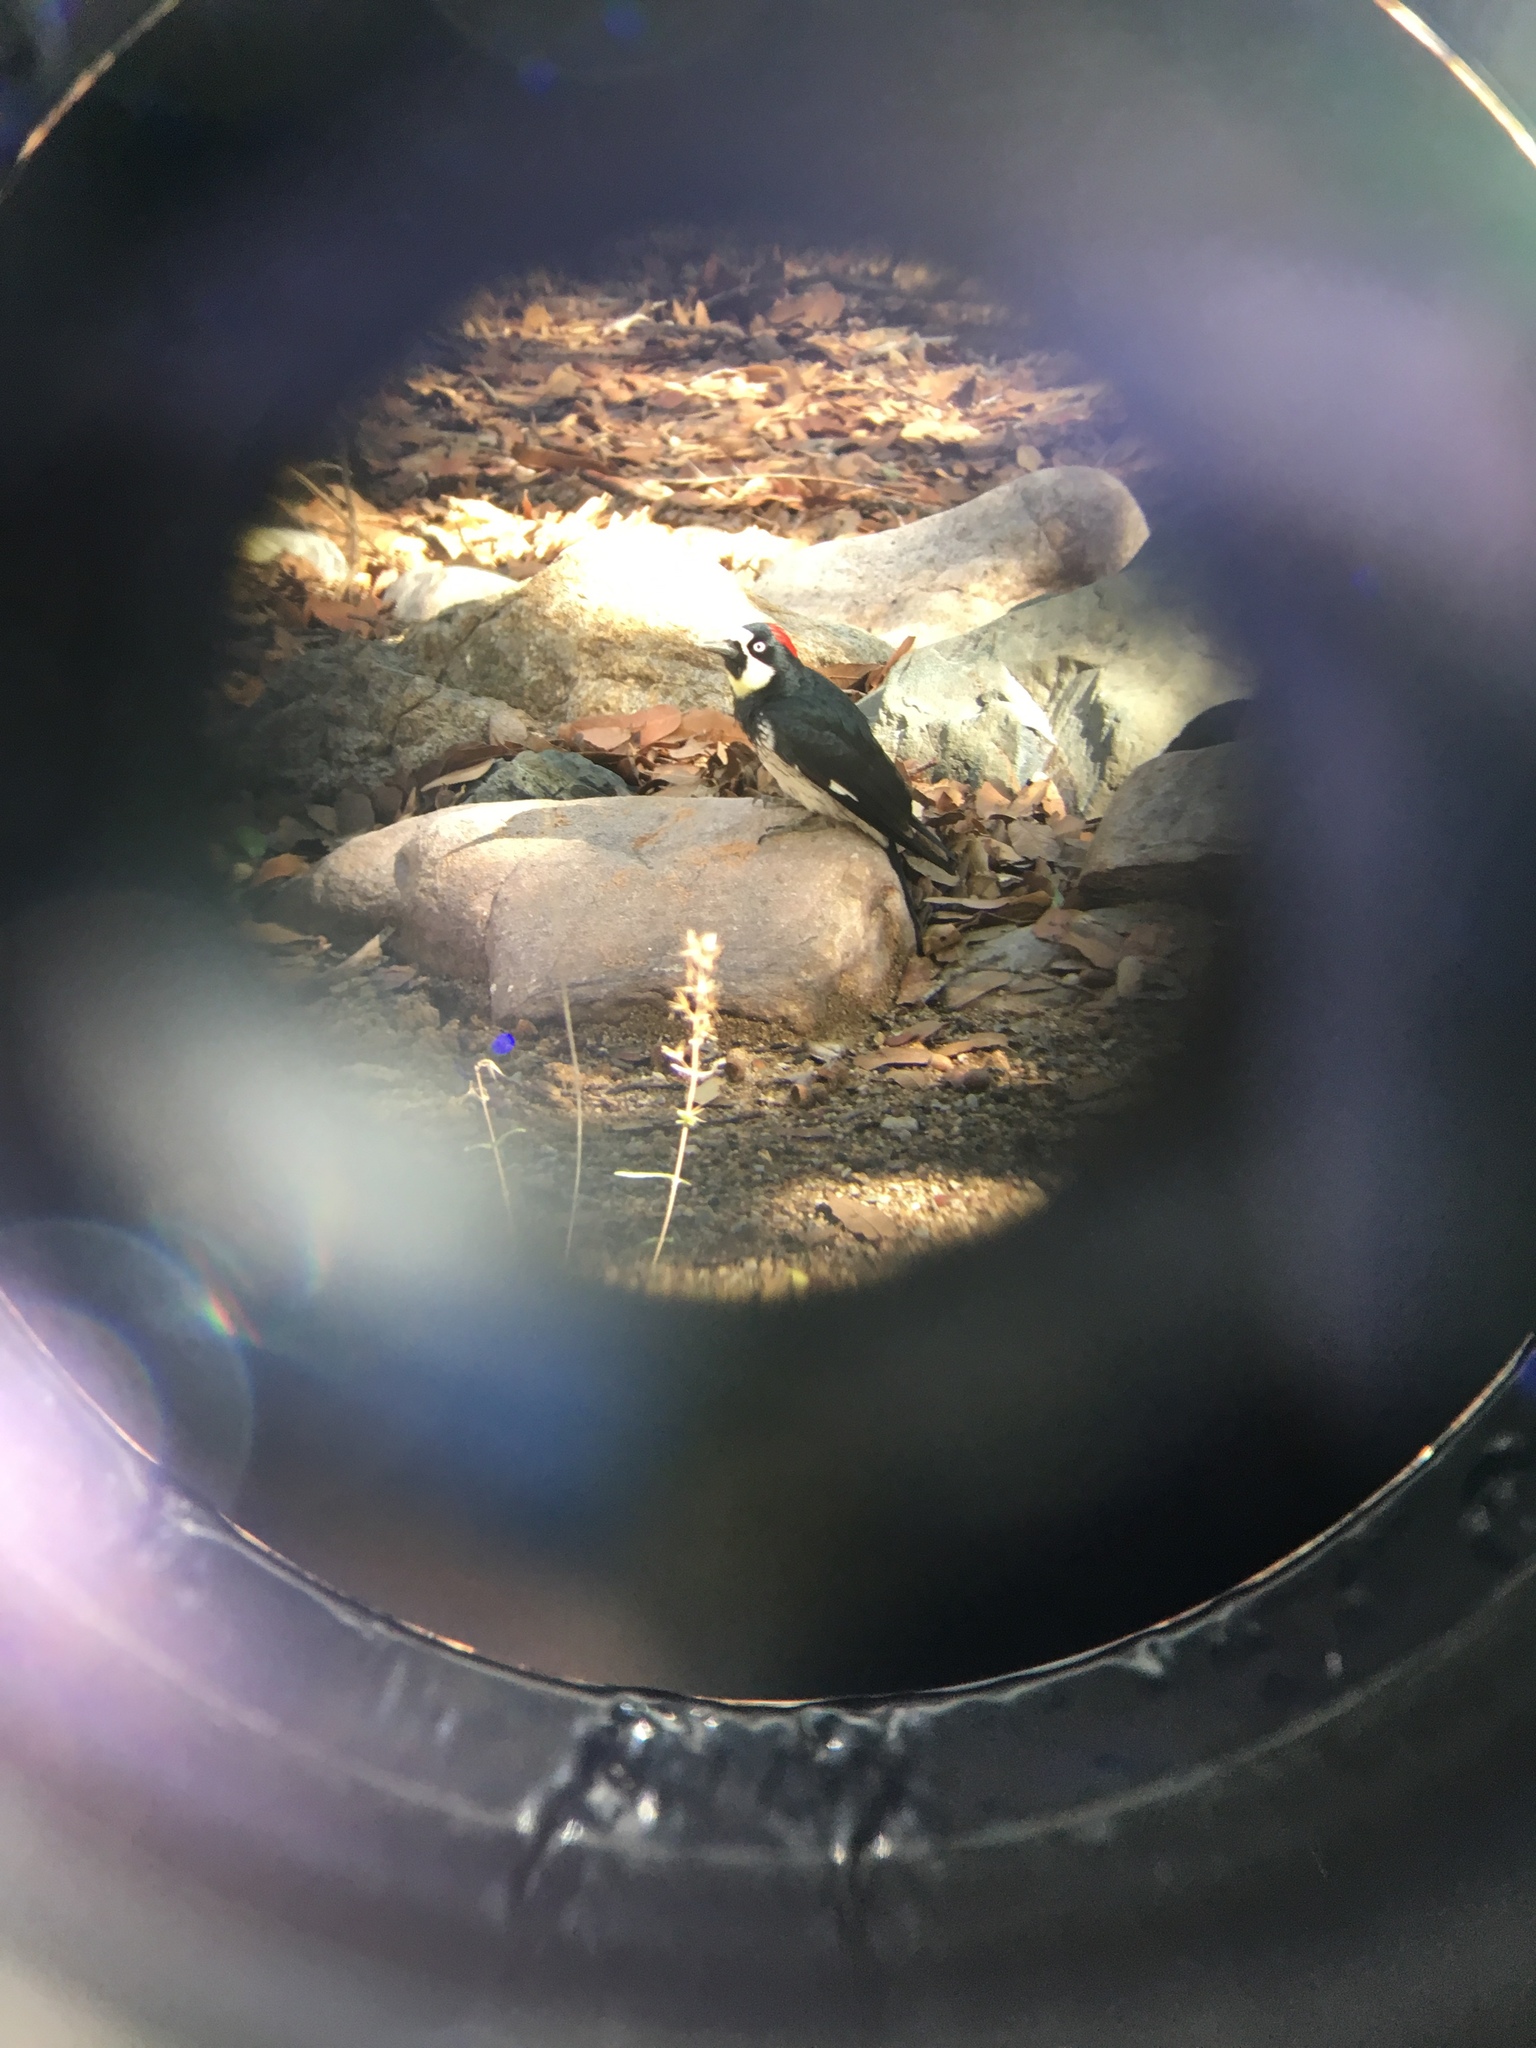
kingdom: Animalia
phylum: Chordata
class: Aves
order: Piciformes
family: Picidae
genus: Melanerpes
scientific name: Melanerpes formicivorus
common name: Acorn woodpecker
